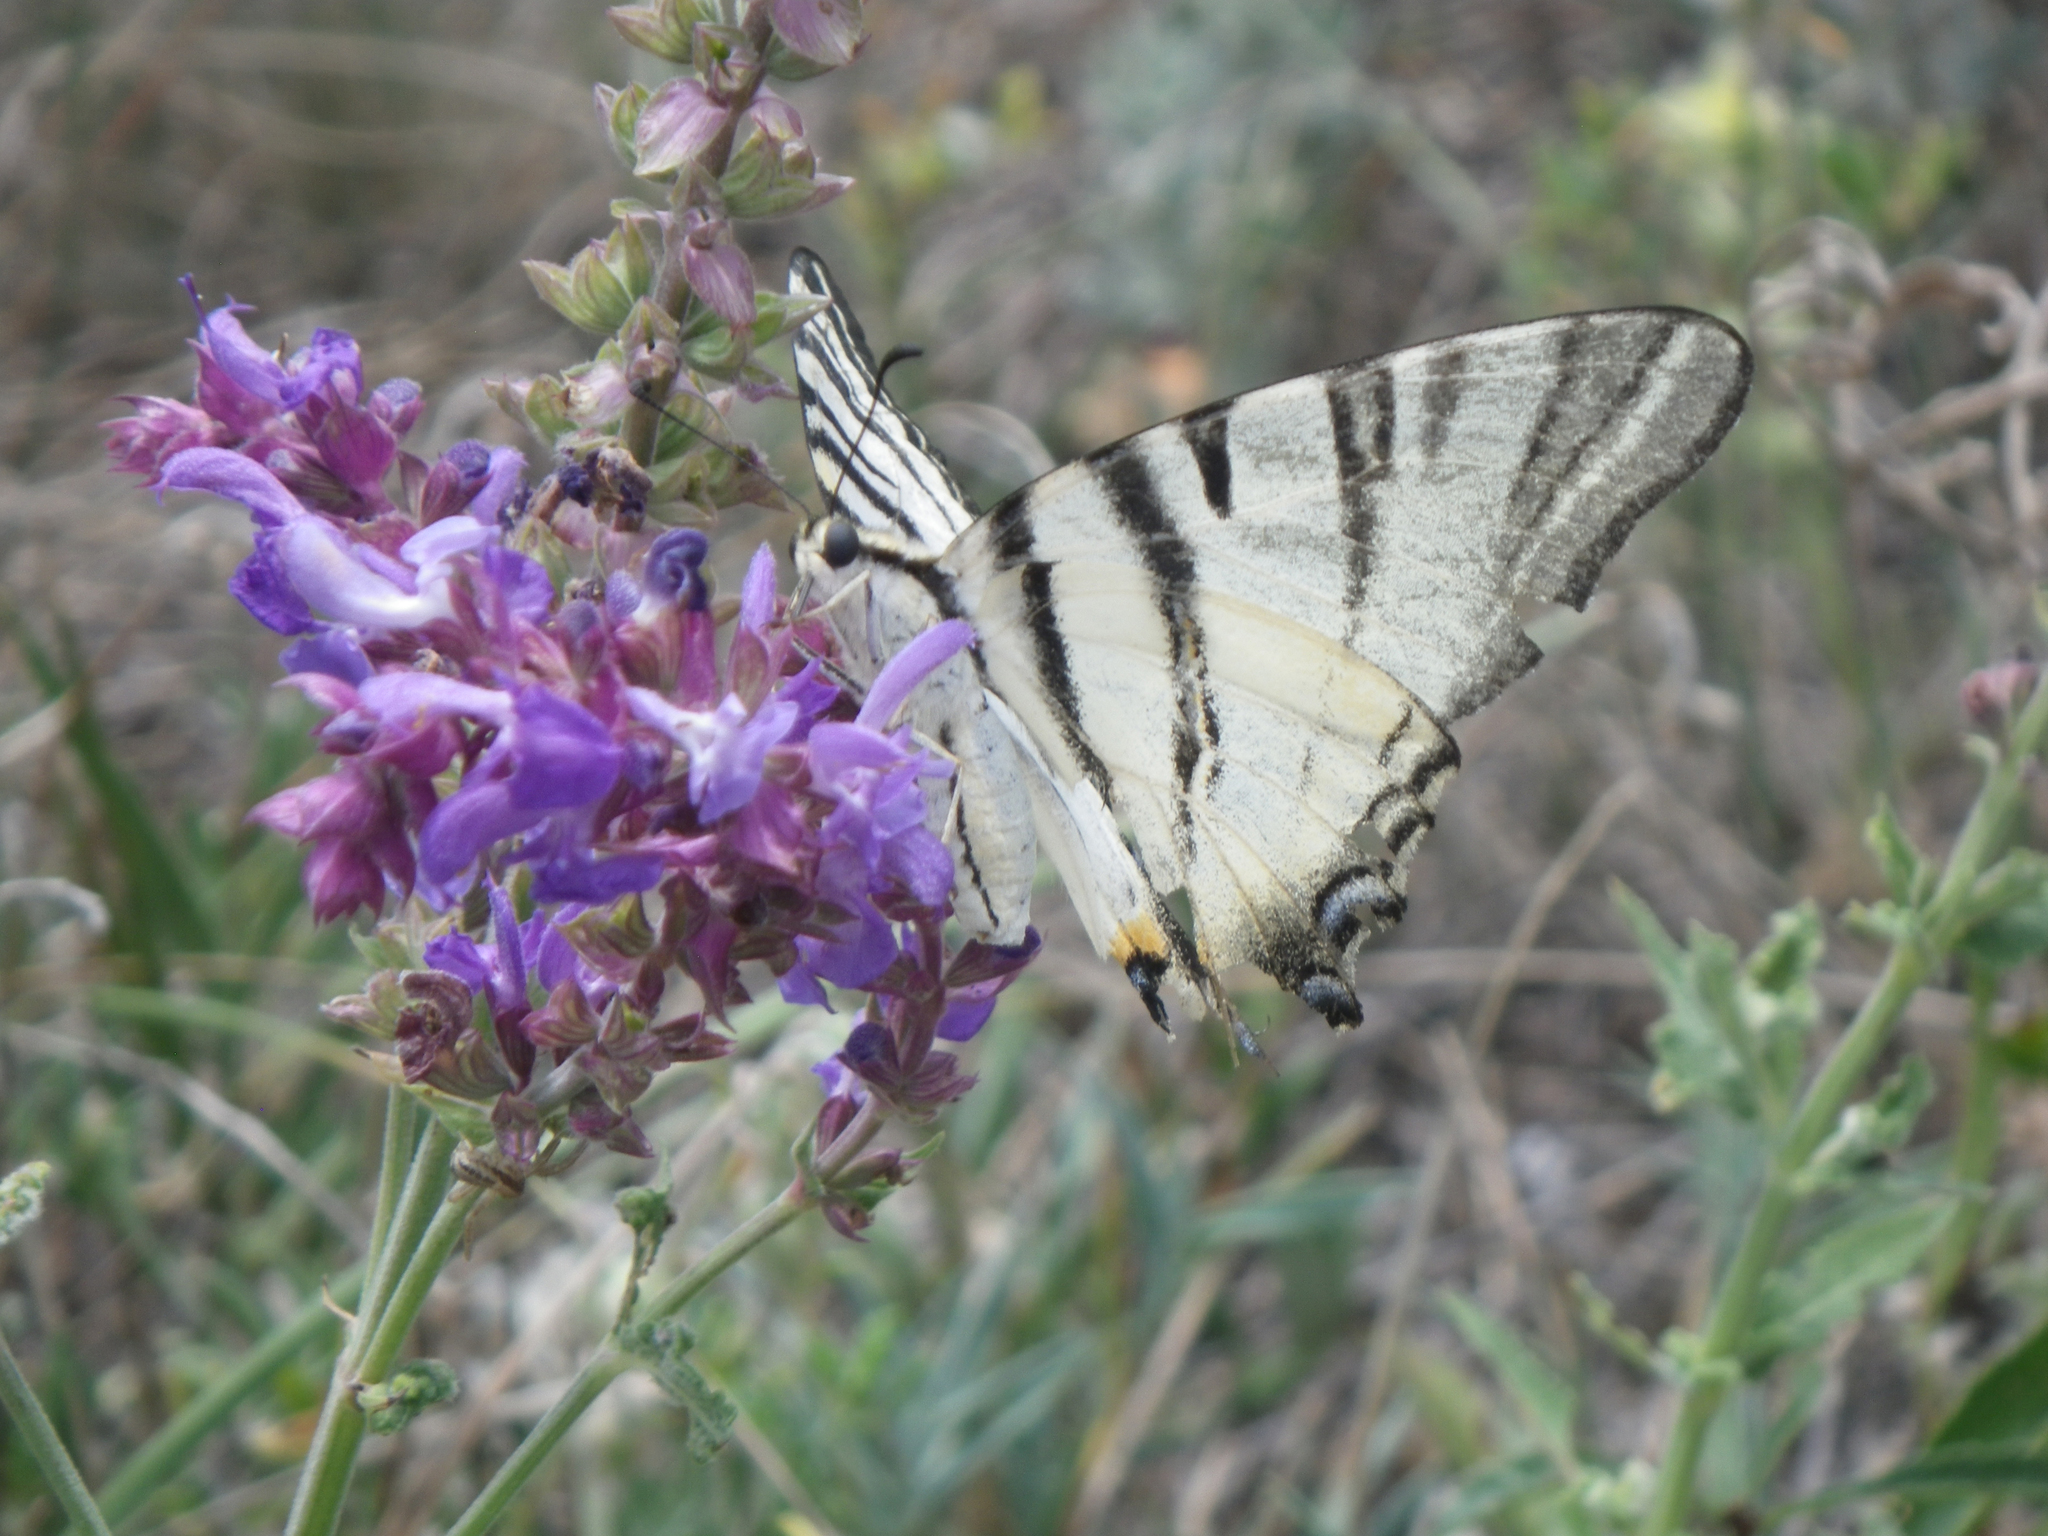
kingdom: Plantae
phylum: Tracheophyta
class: Magnoliopsida
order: Lamiales
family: Lamiaceae
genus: Salvia
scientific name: Salvia nemorosa
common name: Balkan clary
